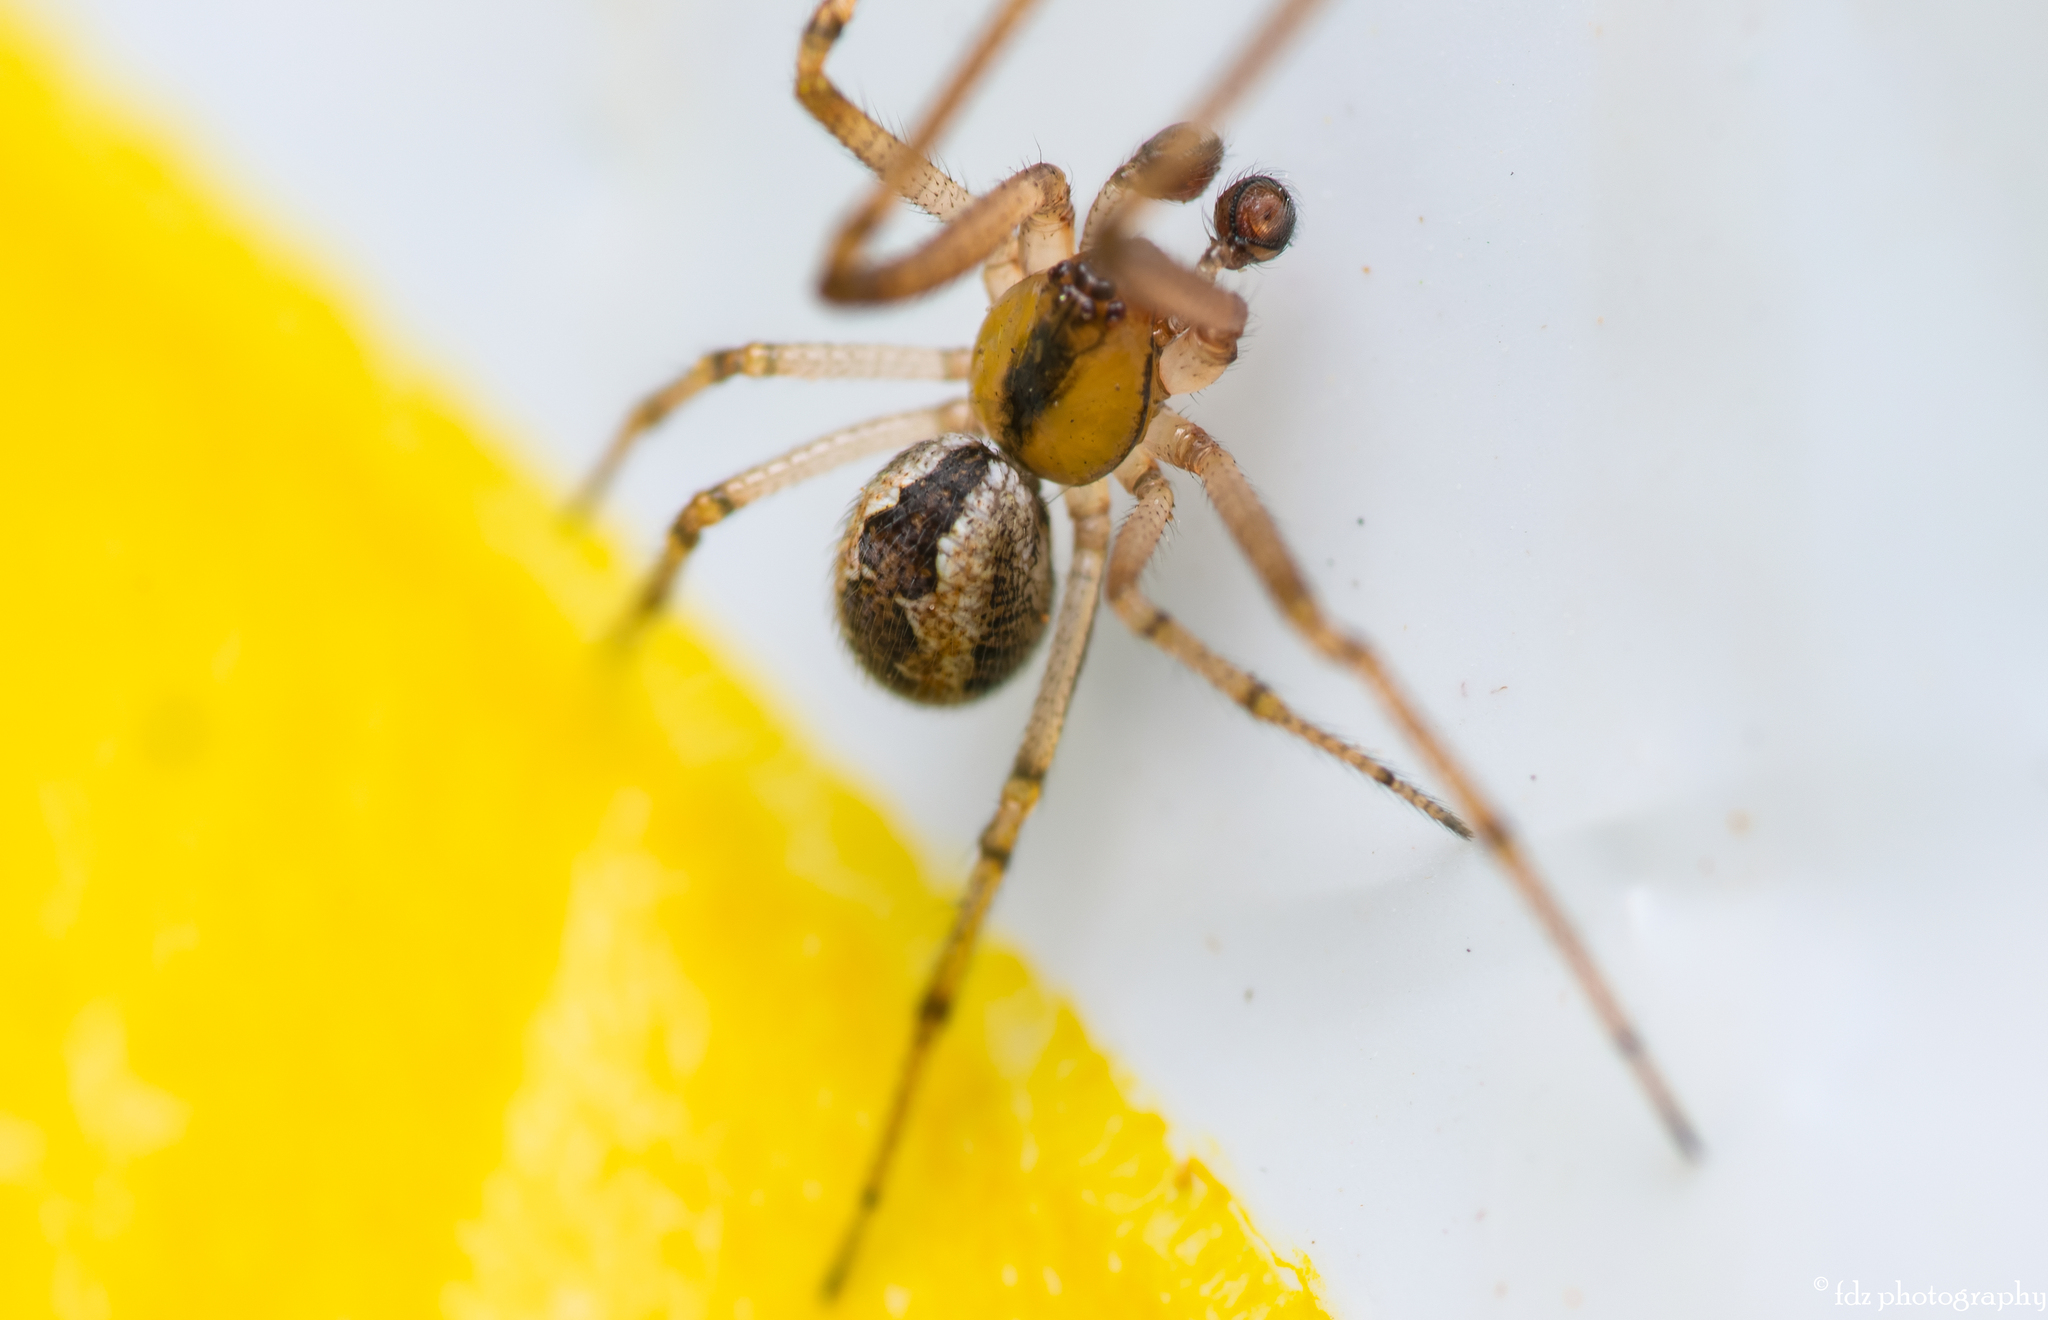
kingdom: Animalia
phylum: Arthropoda
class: Arachnida
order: Araneae
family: Theridiidae
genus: Kochiura
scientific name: Kochiura aulica
